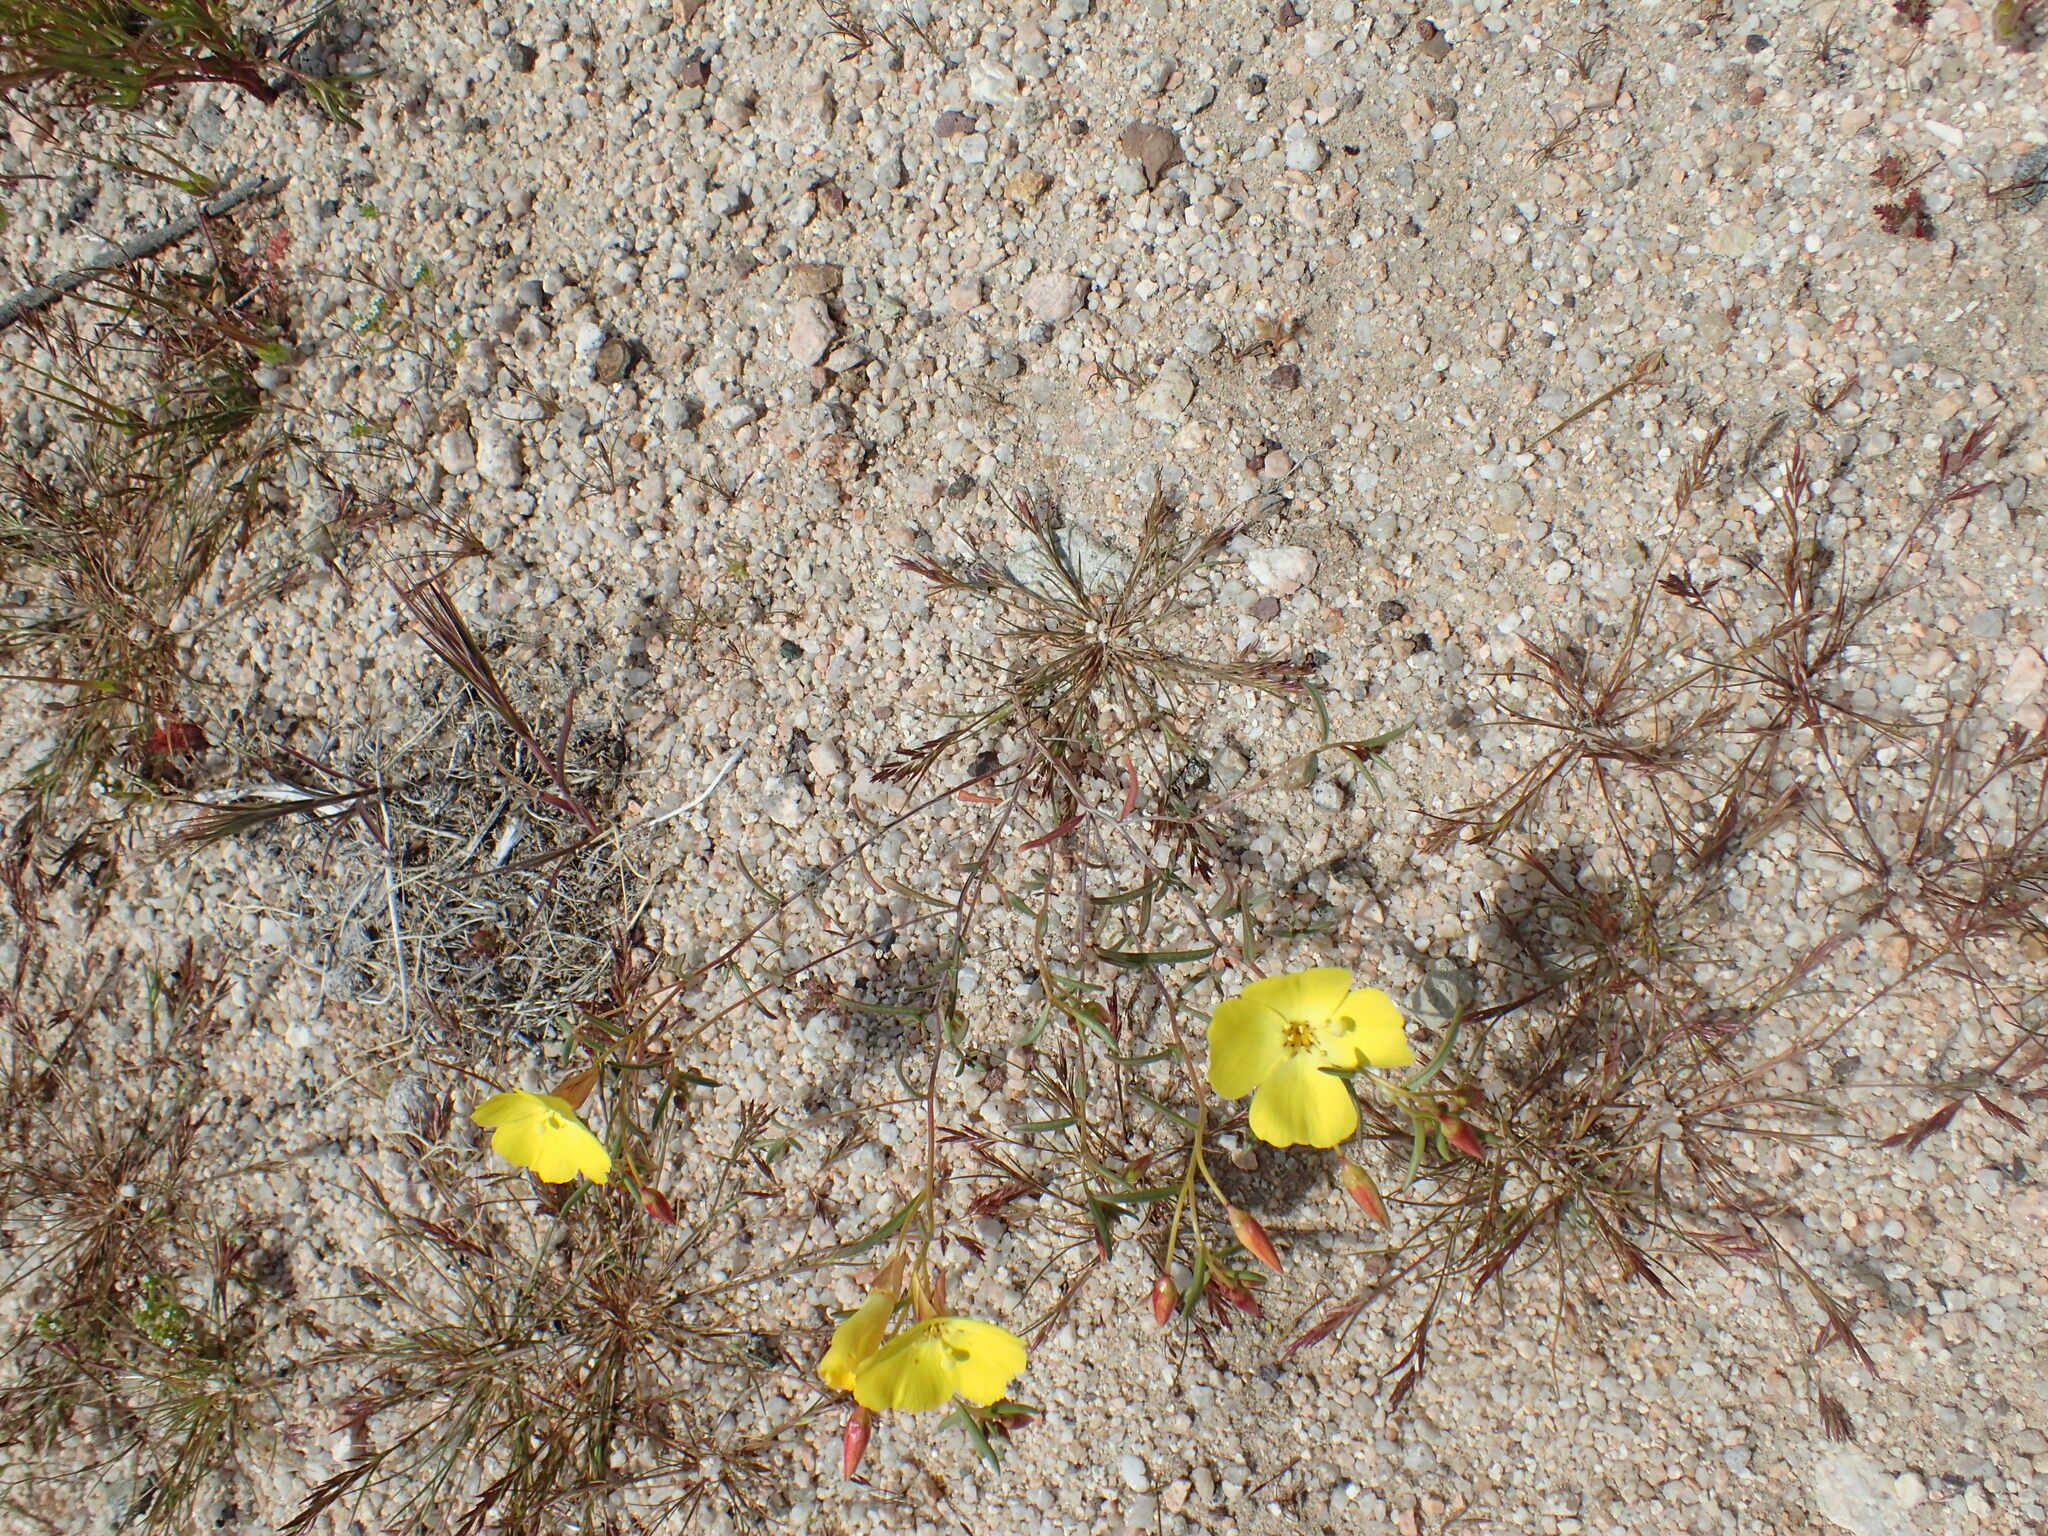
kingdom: Plantae
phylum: Tracheophyta
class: Magnoliopsida
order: Myrtales
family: Onagraceae
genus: Camissonia
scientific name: Camissonia campestris
